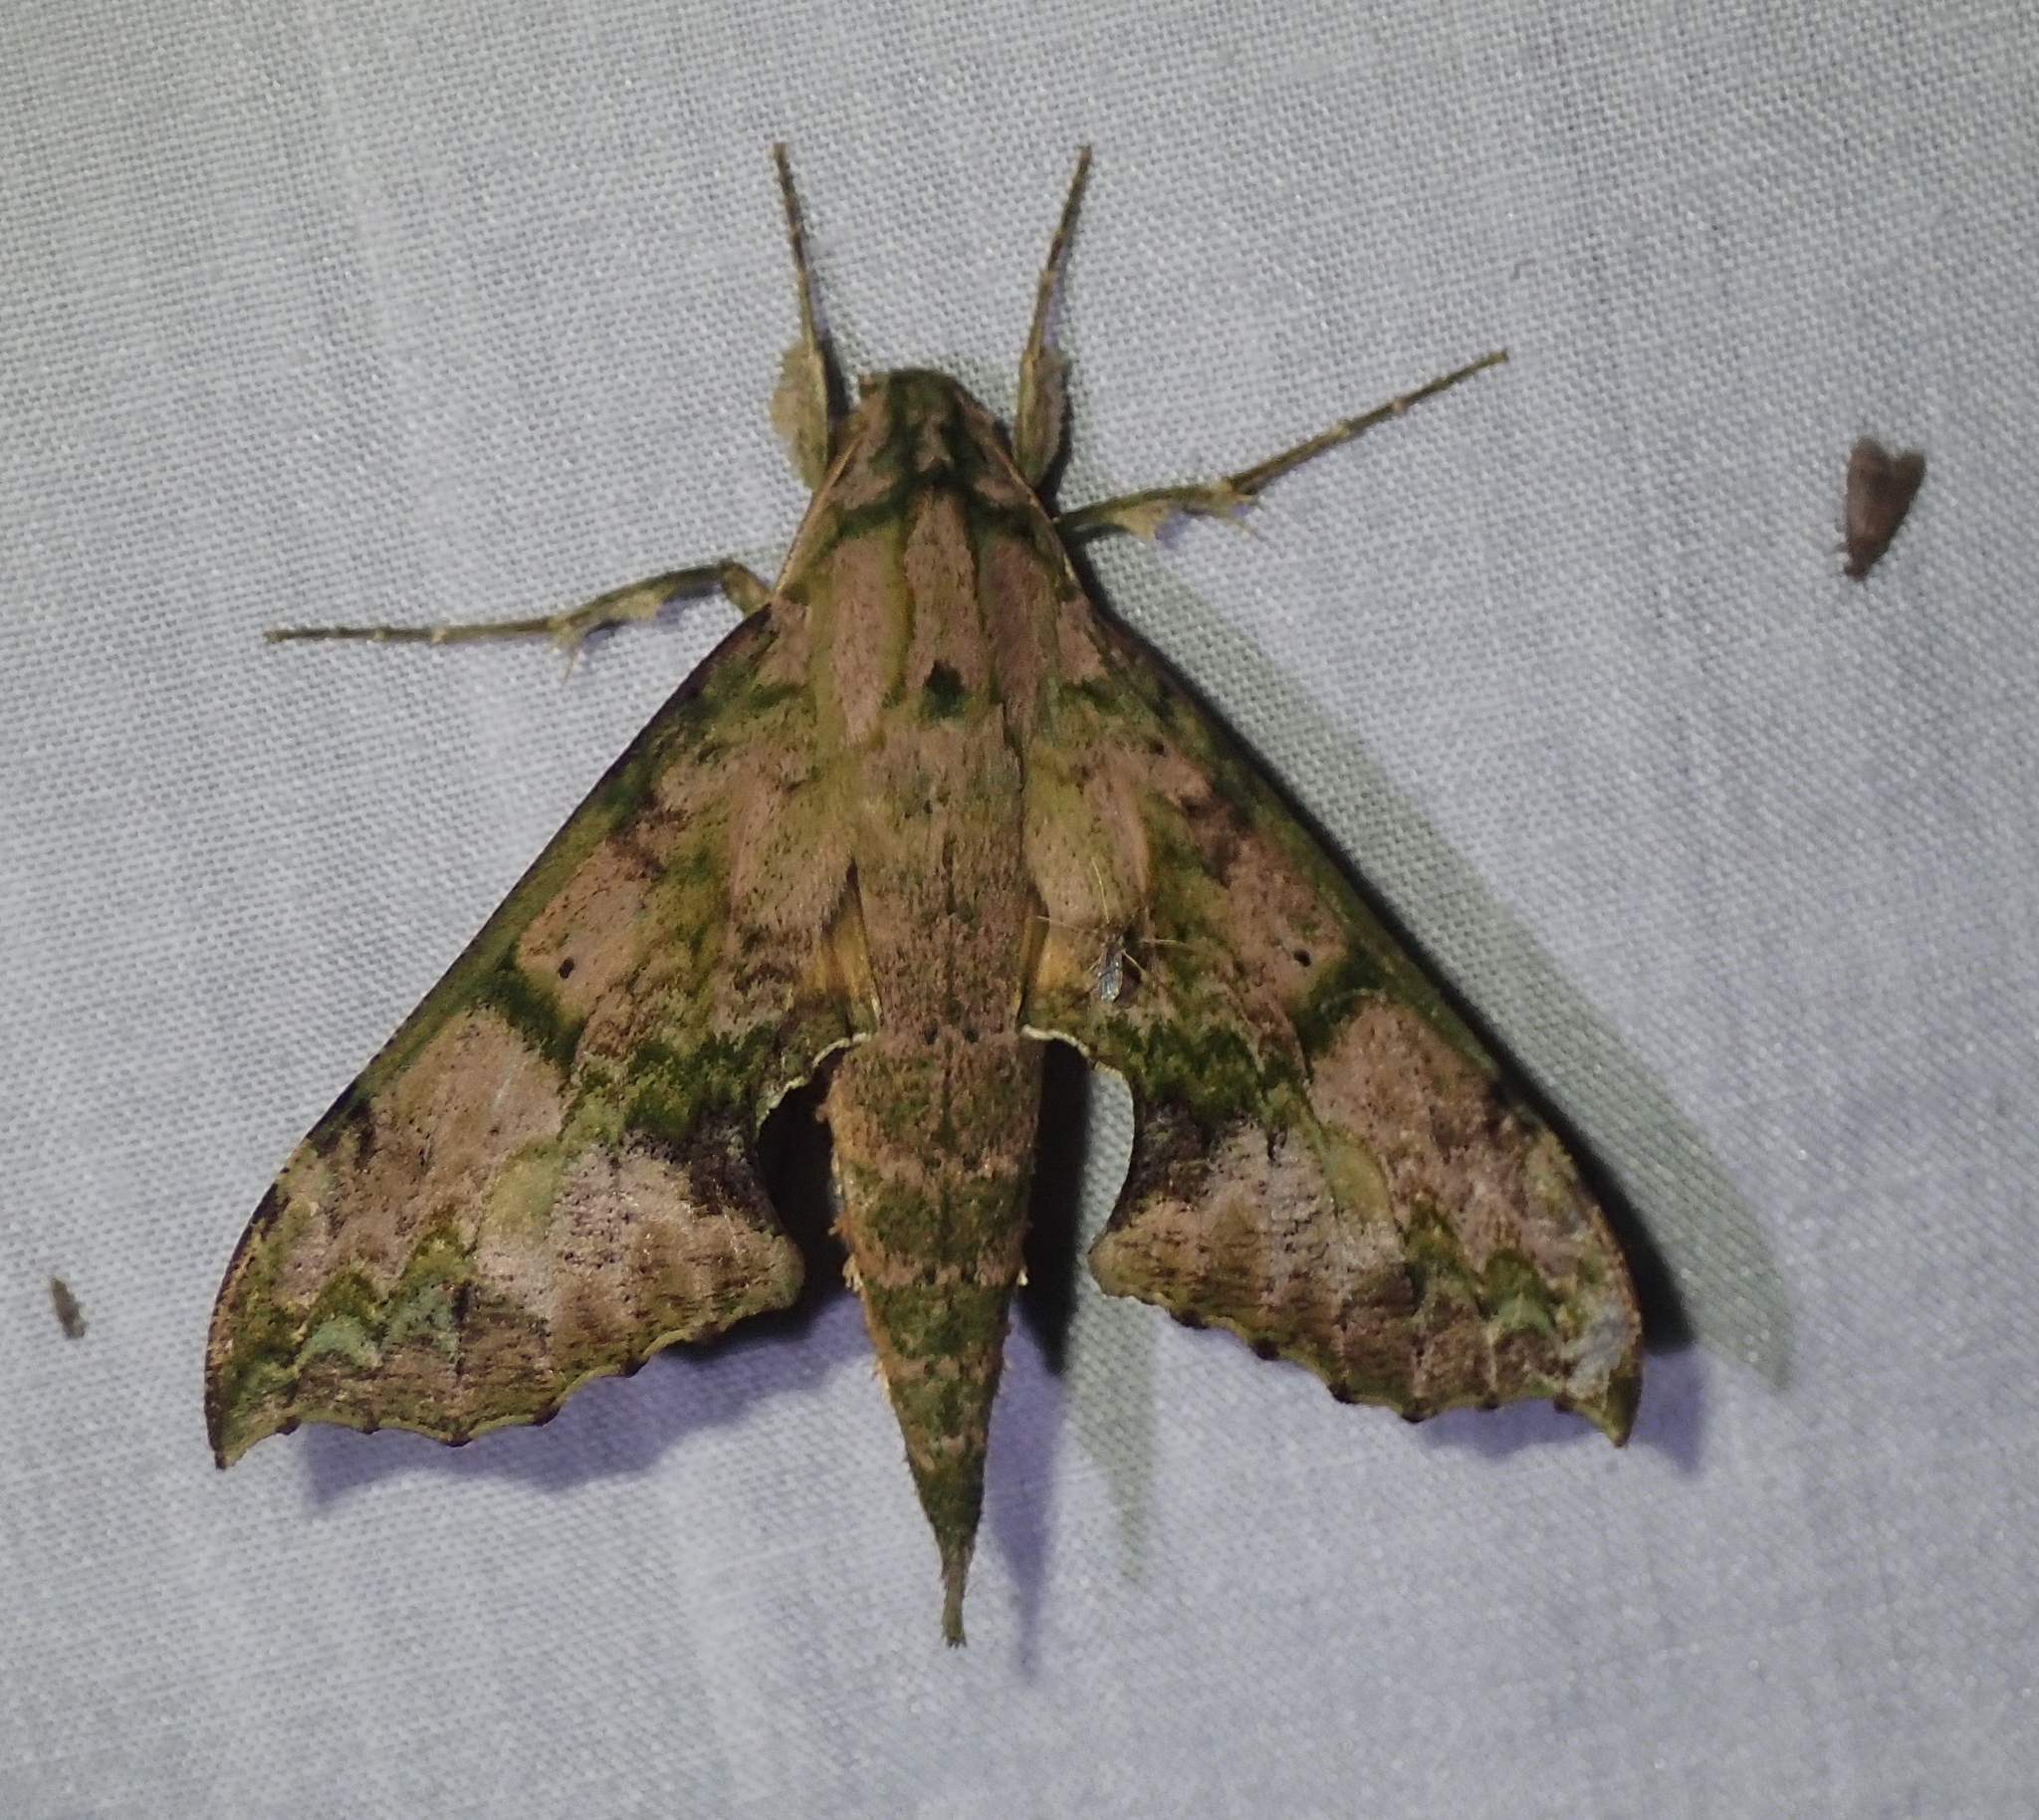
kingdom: Animalia
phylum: Arthropoda
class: Insecta
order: Lepidoptera
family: Sphingidae
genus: Xylophanes
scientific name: Xylophanes zurcheri
